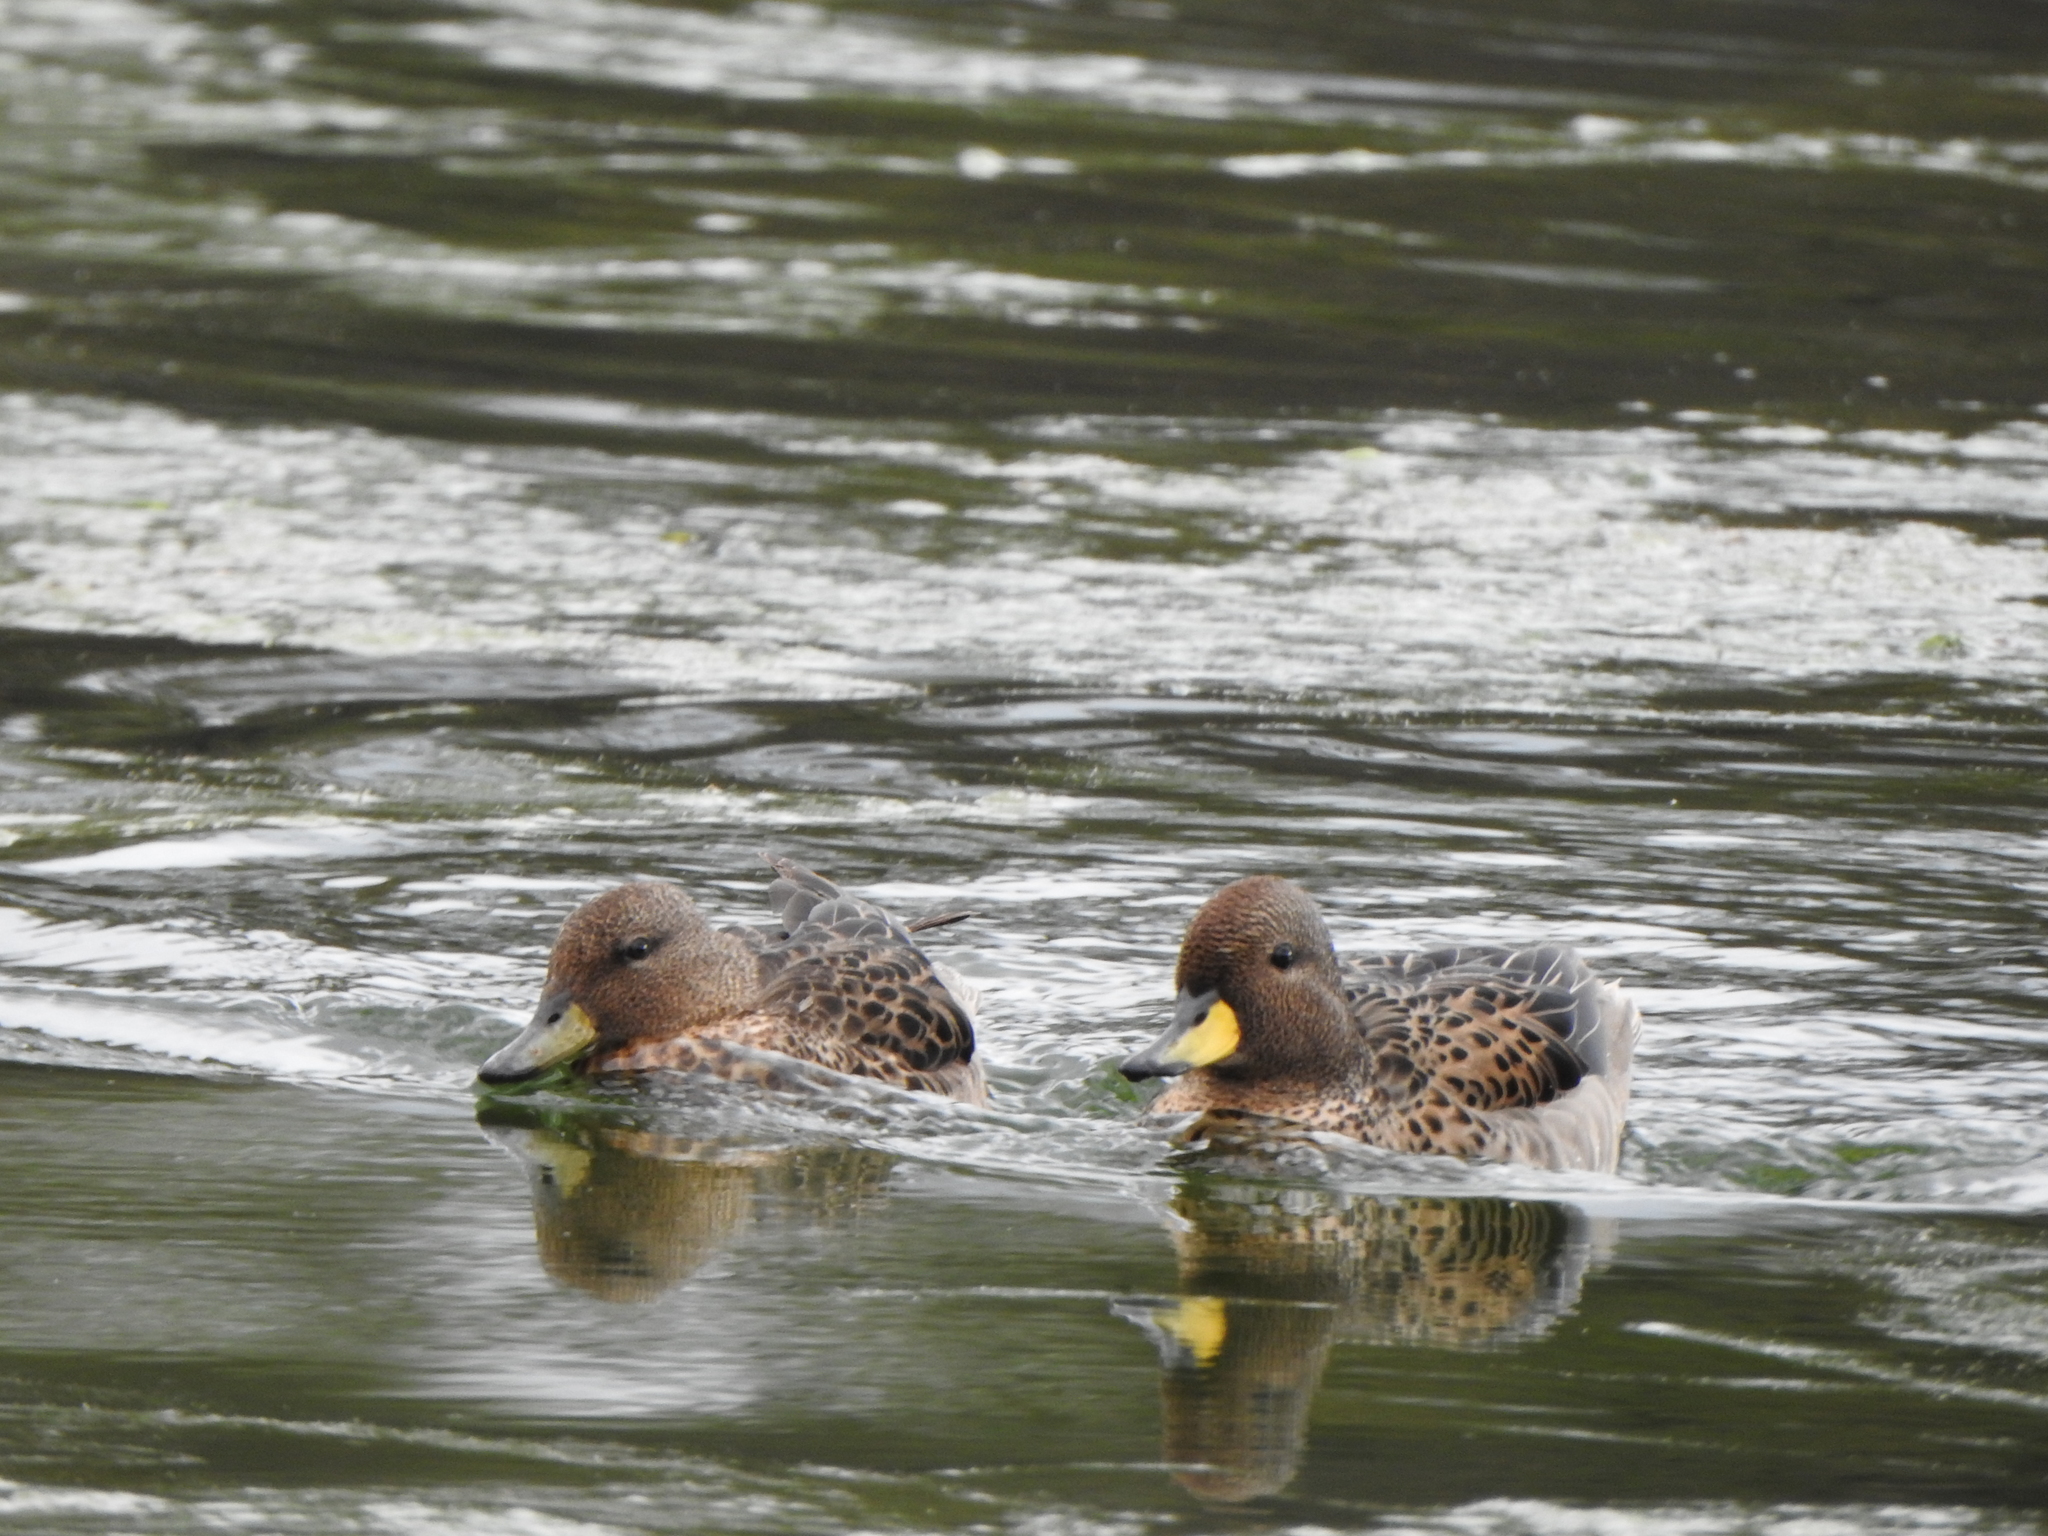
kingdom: Animalia
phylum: Chordata
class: Aves
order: Anseriformes
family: Anatidae
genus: Anas
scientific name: Anas flavirostris
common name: Yellow-billed teal
